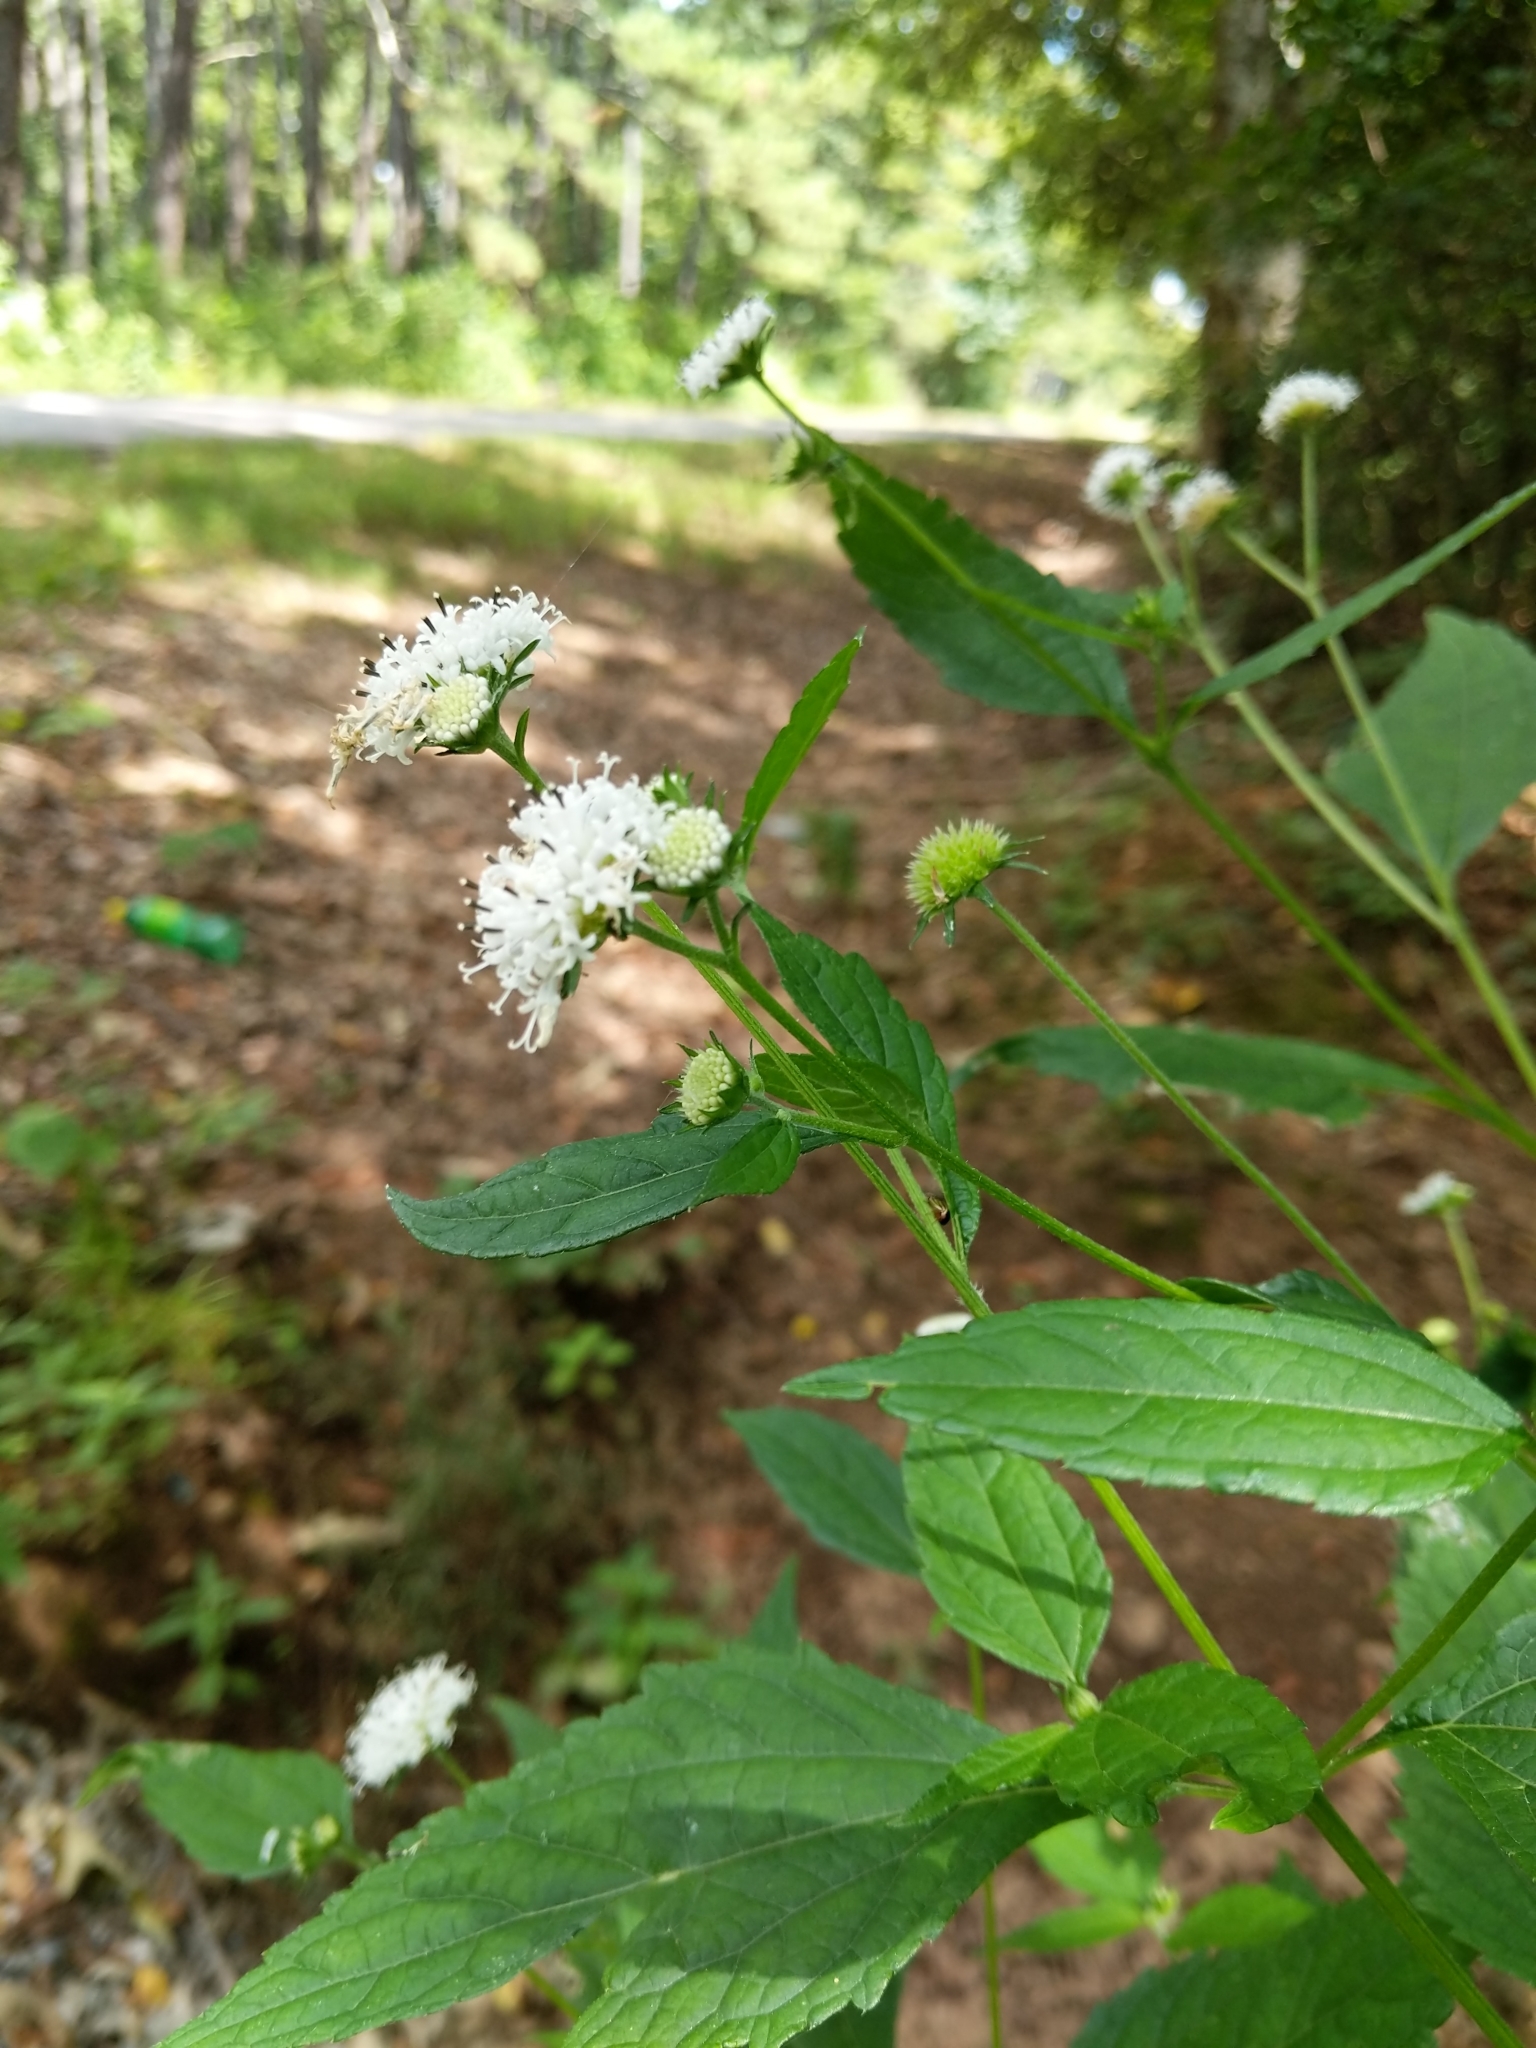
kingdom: Plantae
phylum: Tracheophyta
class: Magnoliopsida
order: Asterales
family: Asteraceae
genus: Melanthera
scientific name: Melanthera nivea
